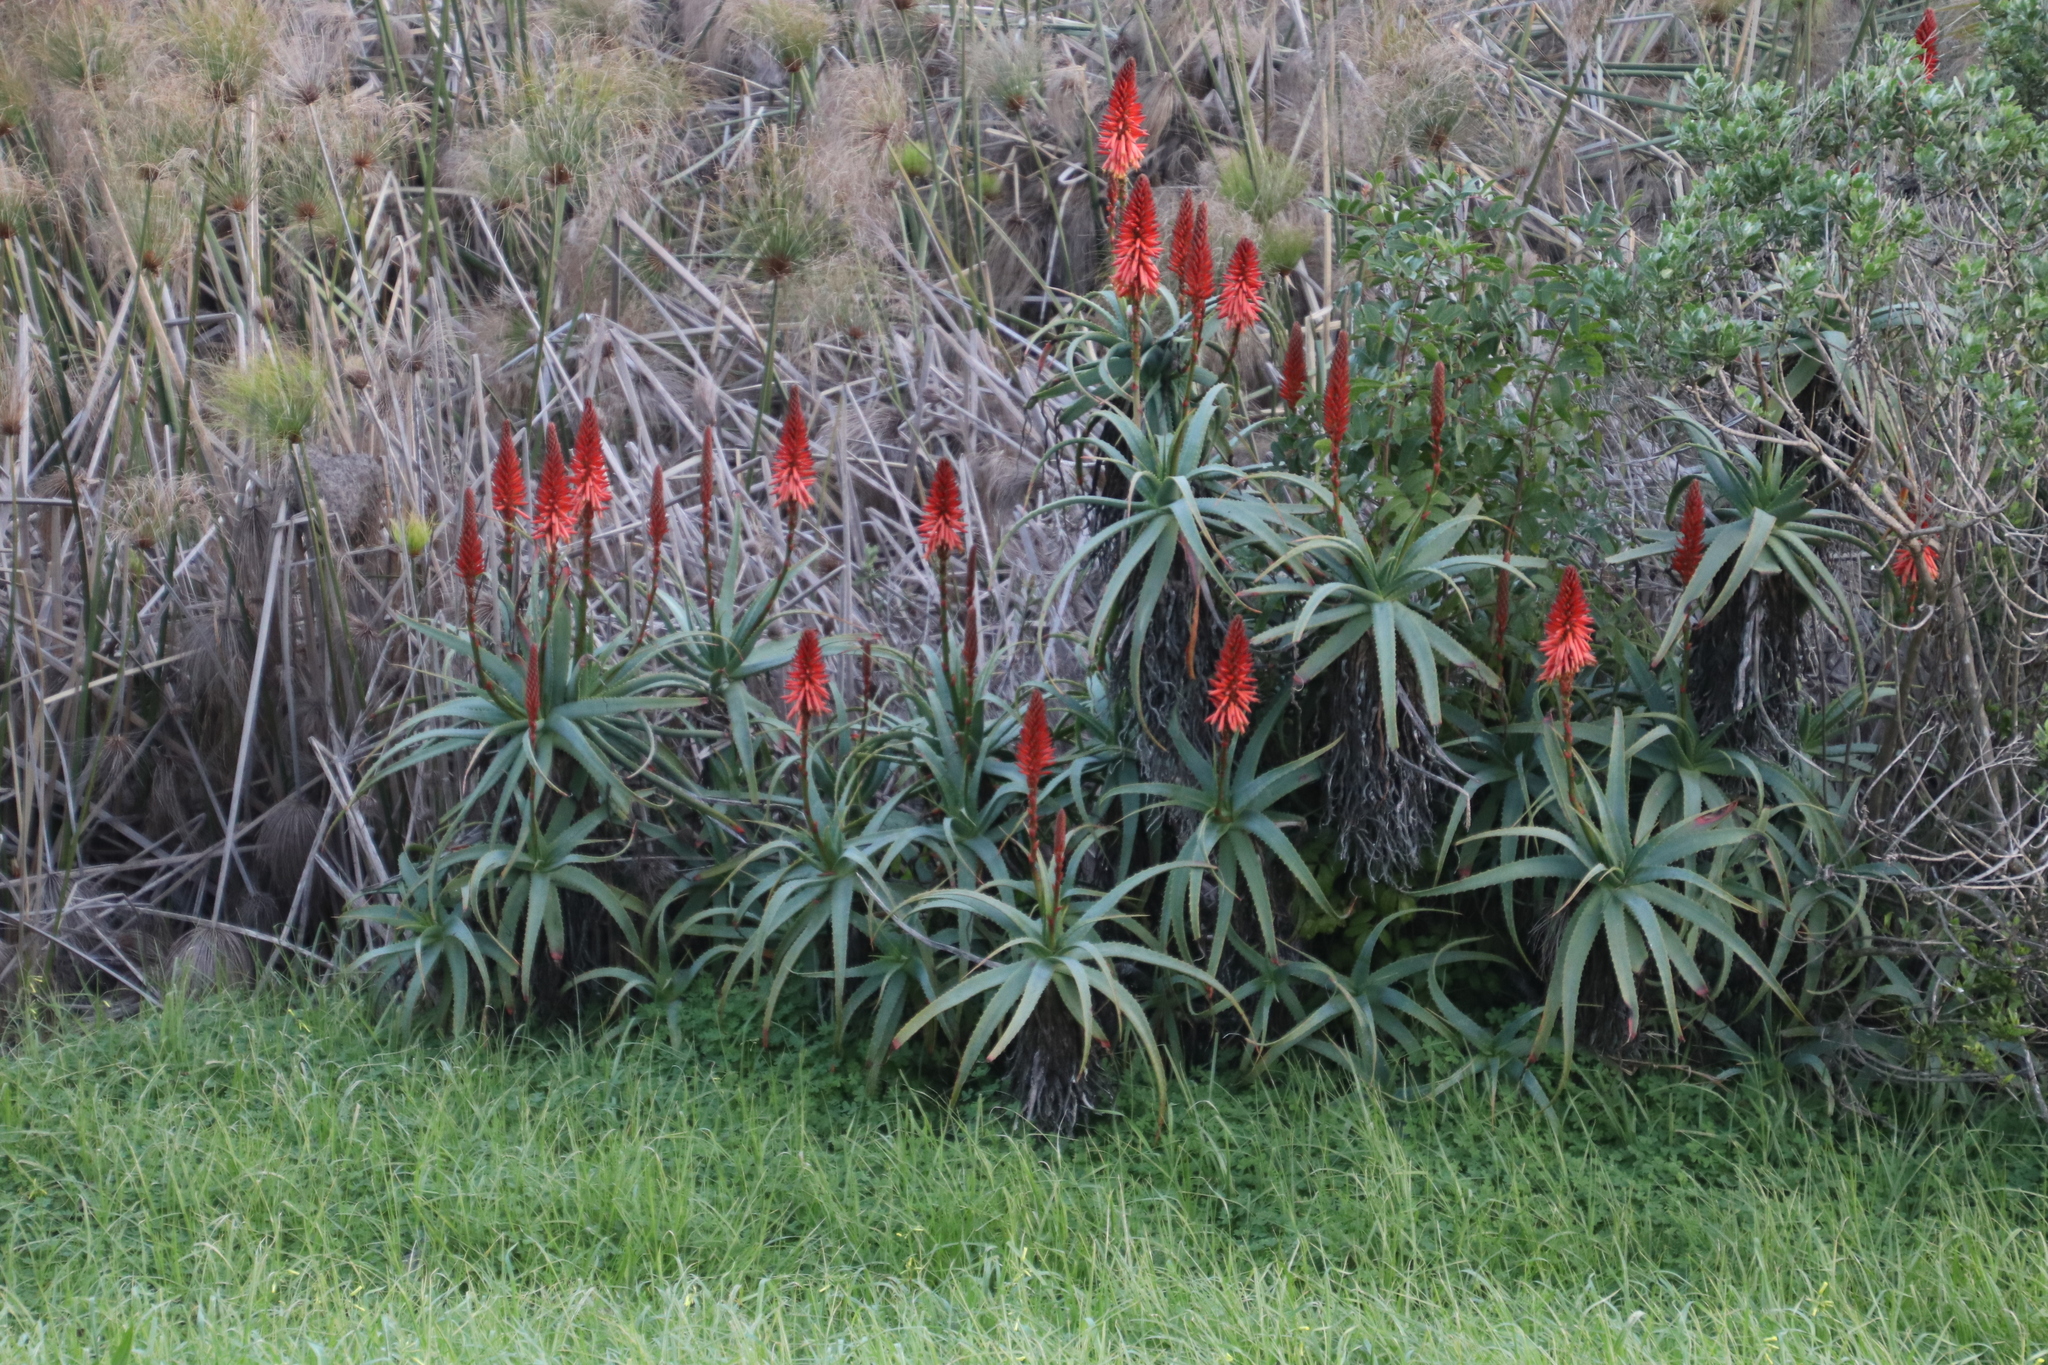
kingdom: Plantae
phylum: Tracheophyta
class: Liliopsida
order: Asparagales
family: Asphodelaceae
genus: Aloe
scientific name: Aloe arborescens
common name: Candelabra aloe
